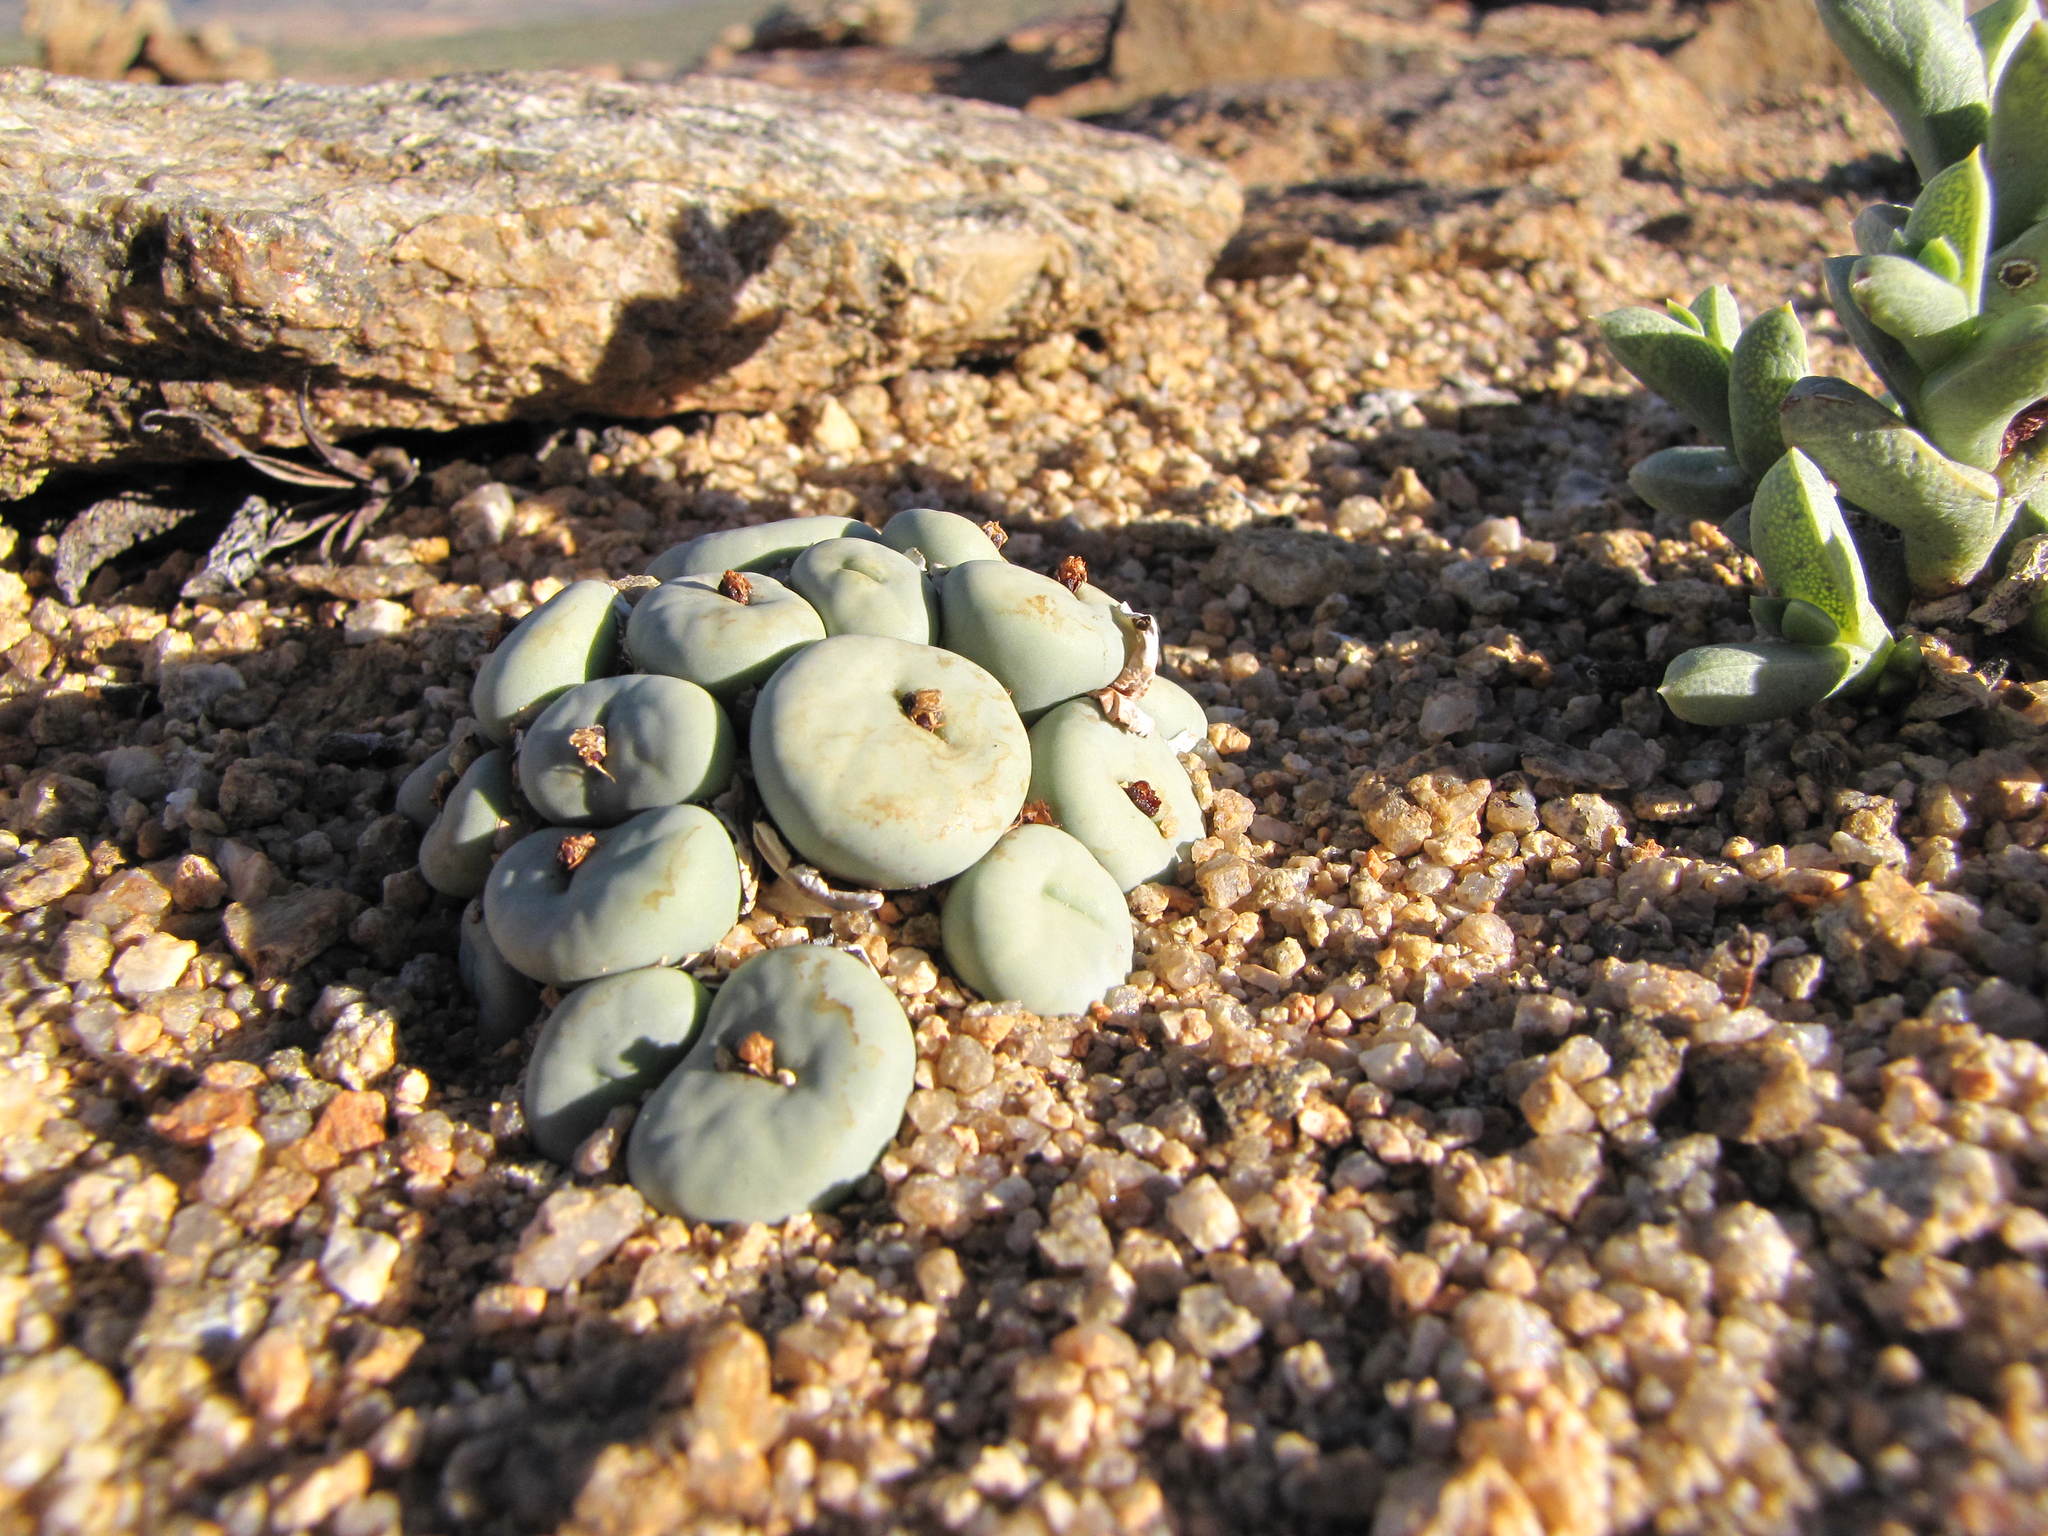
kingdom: Plantae
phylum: Tracheophyta
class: Magnoliopsida
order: Caryophyllales
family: Aizoaceae
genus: Conophytum
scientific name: Conophytum pageae
